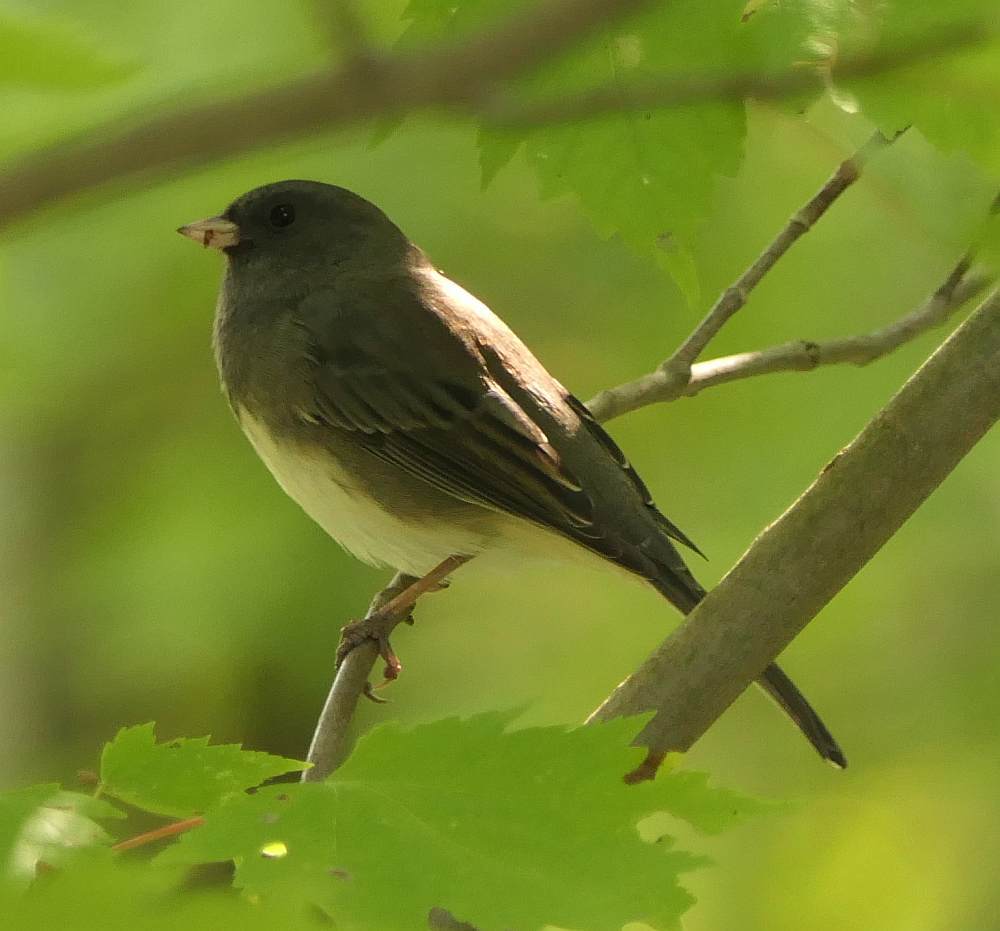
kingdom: Animalia
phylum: Chordata
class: Aves
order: Passeriformes
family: Passerellidae
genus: Junco
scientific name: Junco hyemalis
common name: Dark-eyed junco
